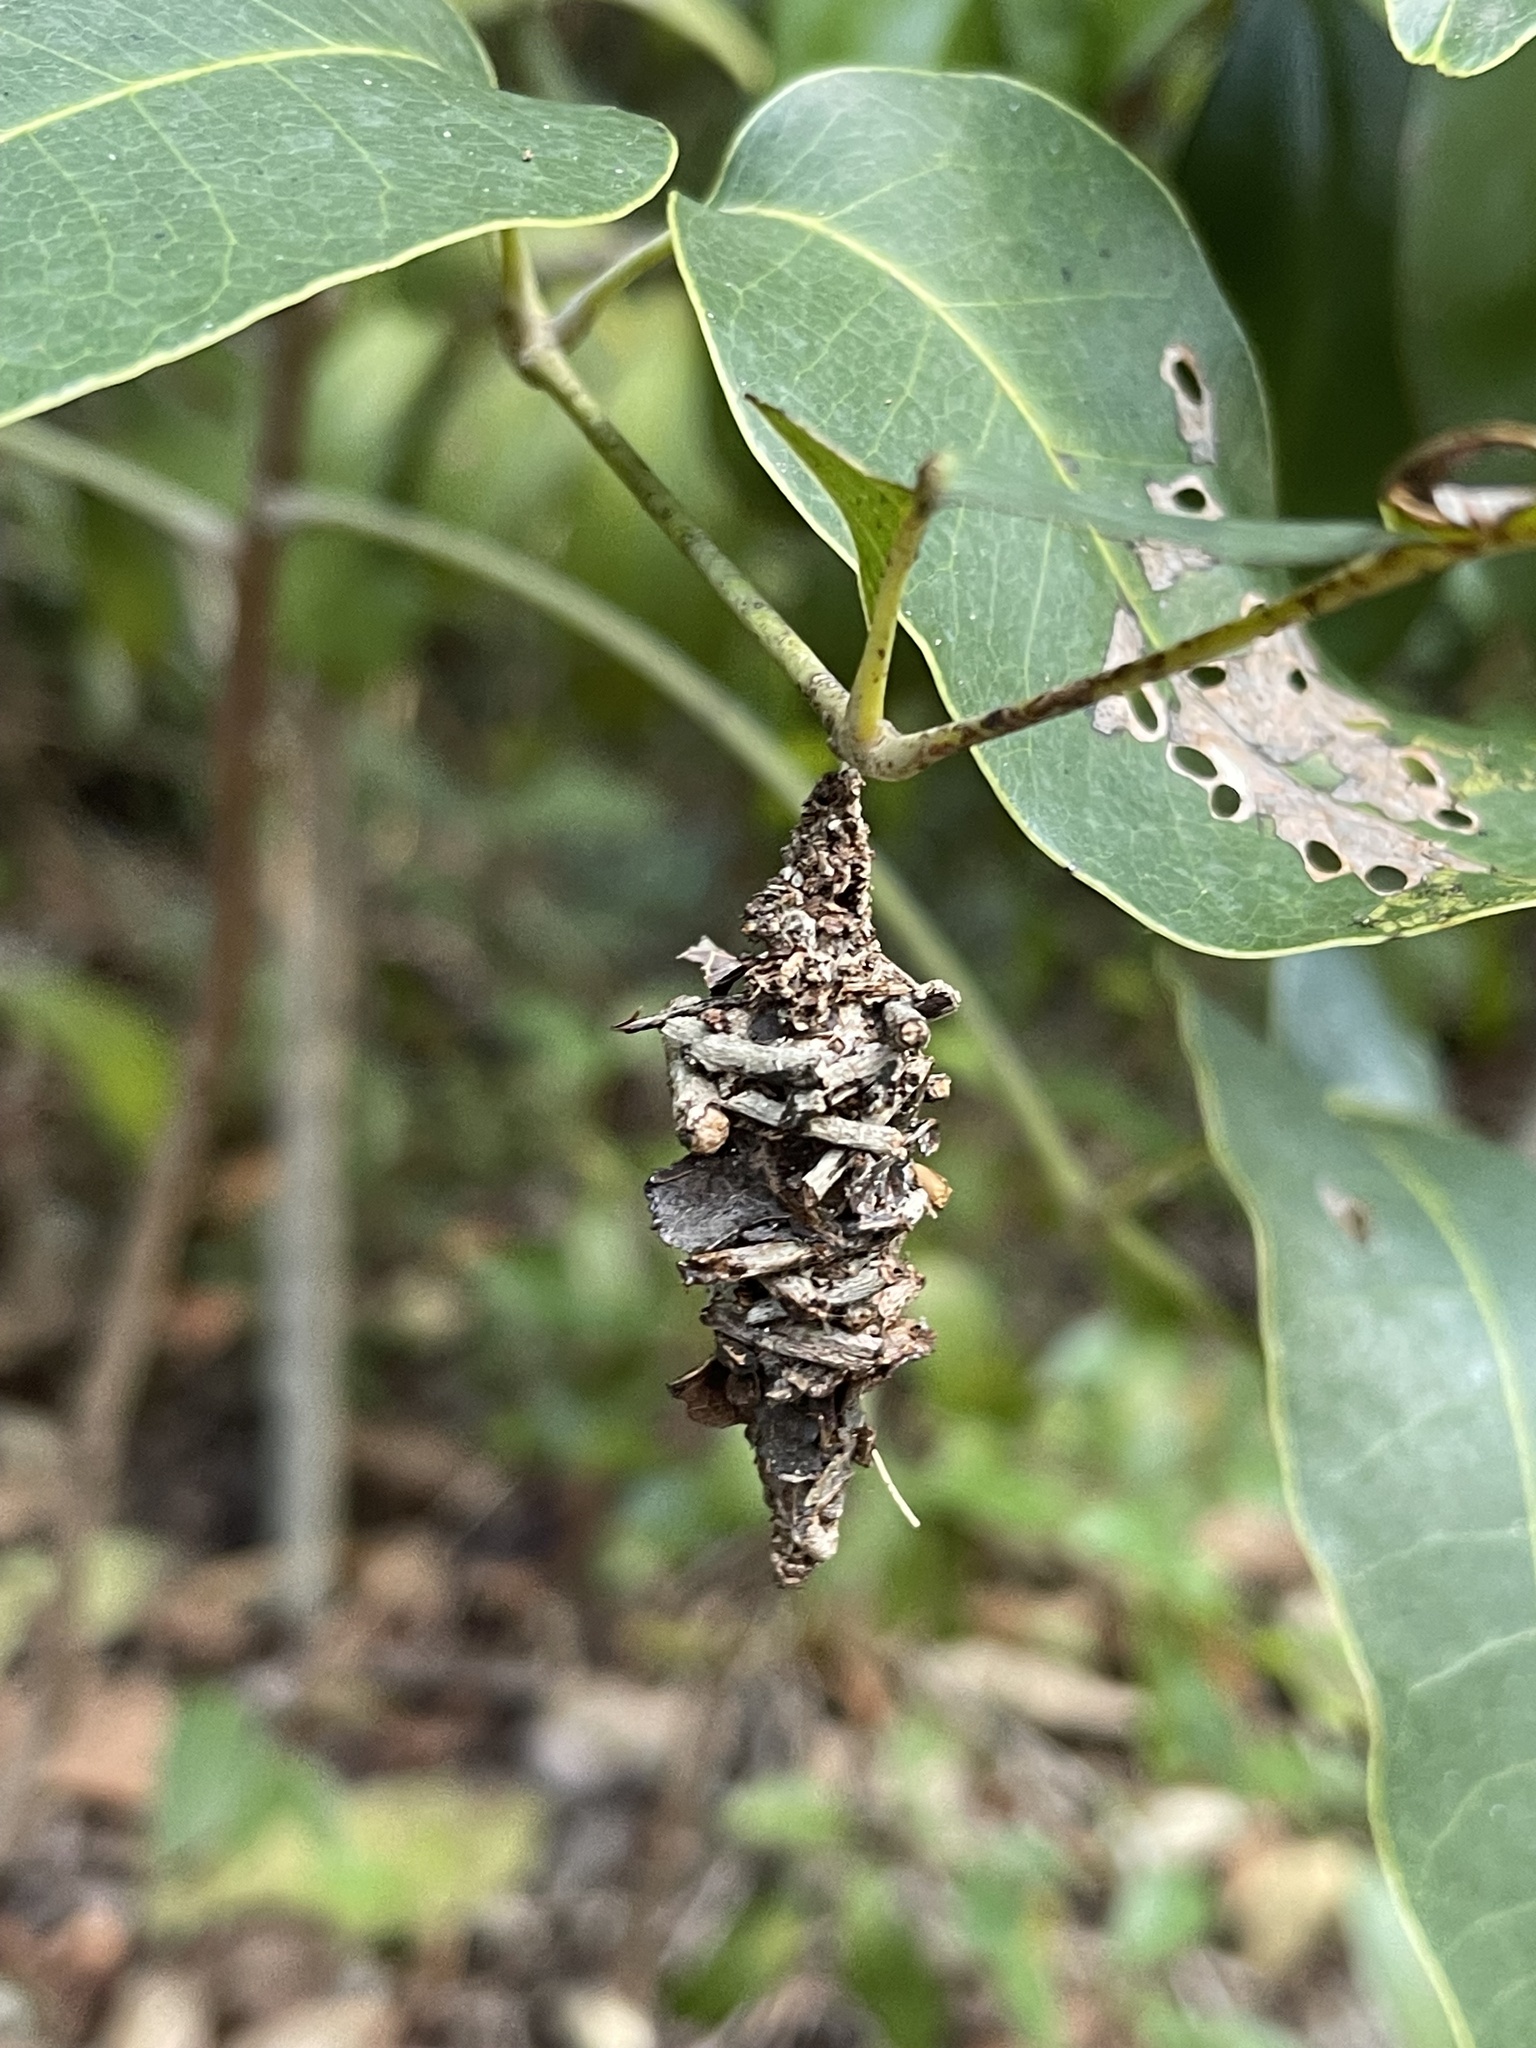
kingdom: Animalia
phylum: Arthropoda
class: Insecta
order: Lepidoptera
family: Psychidae
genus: Oiketicus
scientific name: Oiketicus
